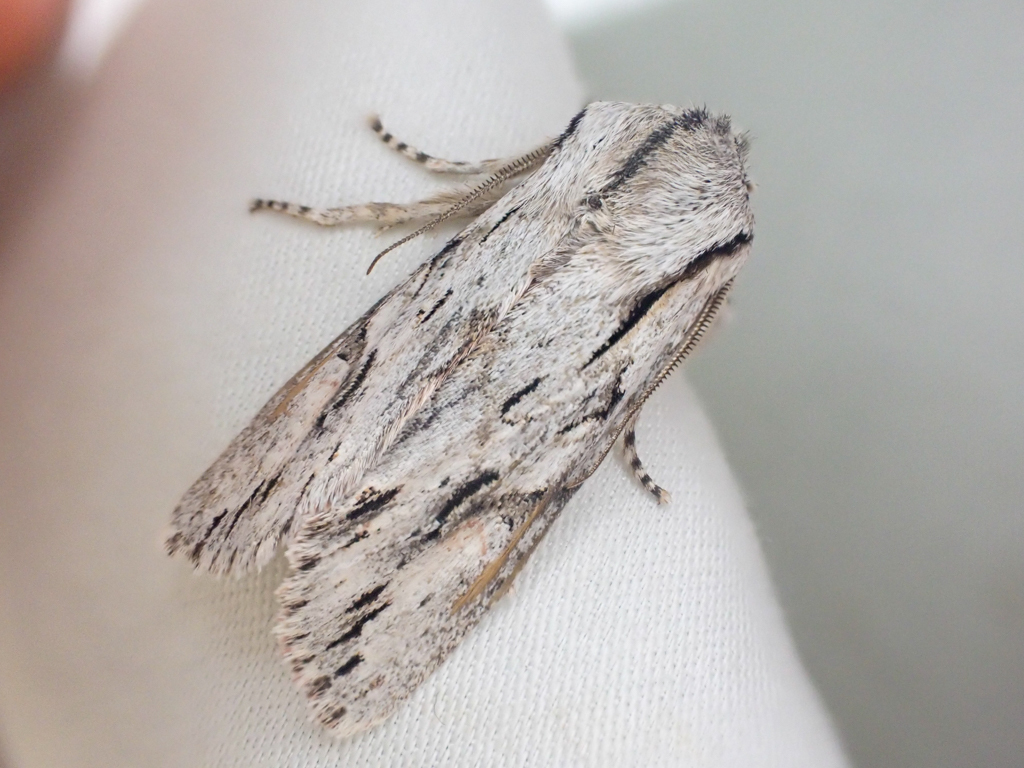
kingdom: Animalia
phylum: Arthropoda
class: Insecta
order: Lepidoptera
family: Noctuidae
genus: Egira
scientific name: Egira crucialis
